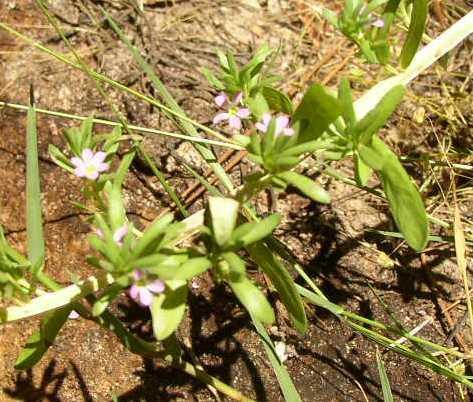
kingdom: Plantae
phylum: Tracheophyta
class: Magnoliopsida
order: Myrtales
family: Lythraceae
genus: Lythrum
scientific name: Lythrum hyssopifolia
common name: Grass-poly
